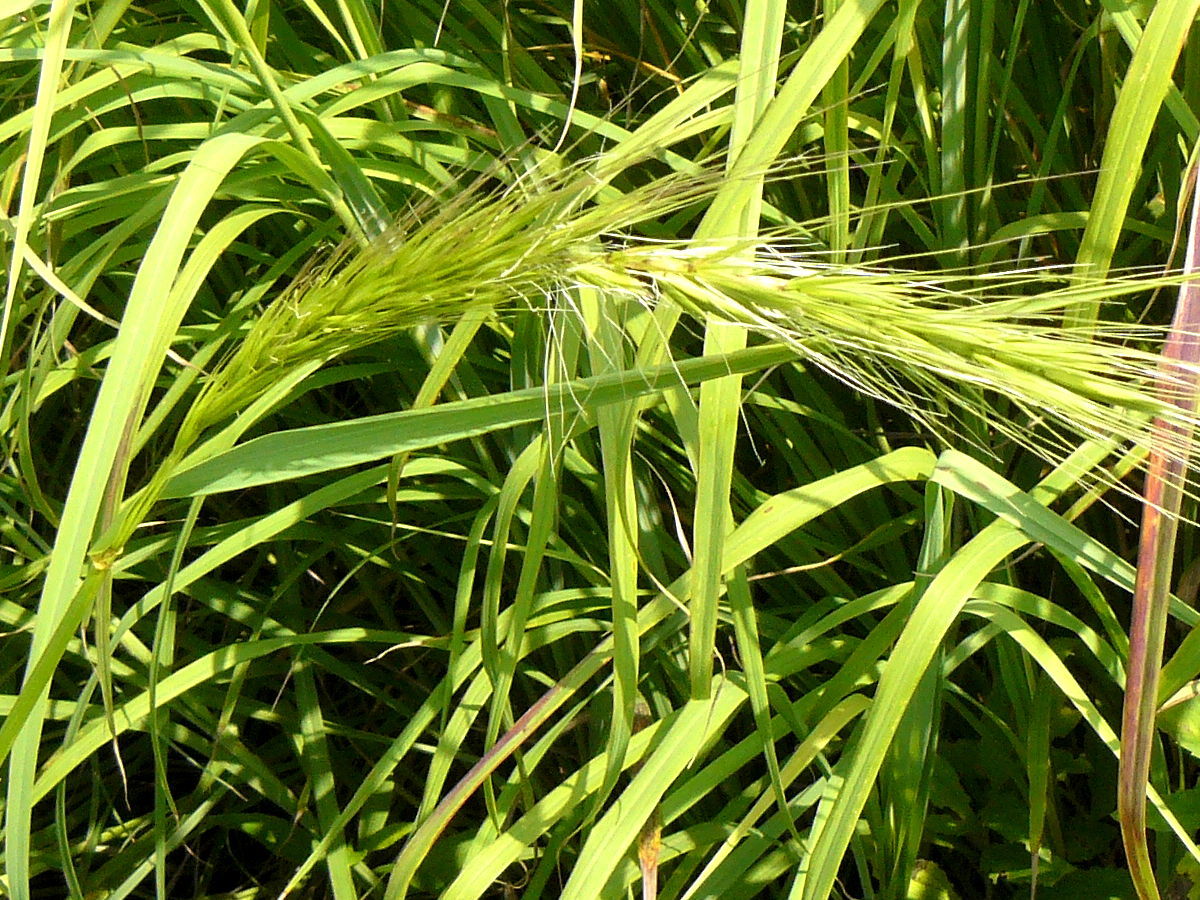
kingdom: Plantae
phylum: Tracheophyta
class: Liliopsida
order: Poales
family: Poaceae
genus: Elymus
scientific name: Elymus canadensis
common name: Canada wild rye
